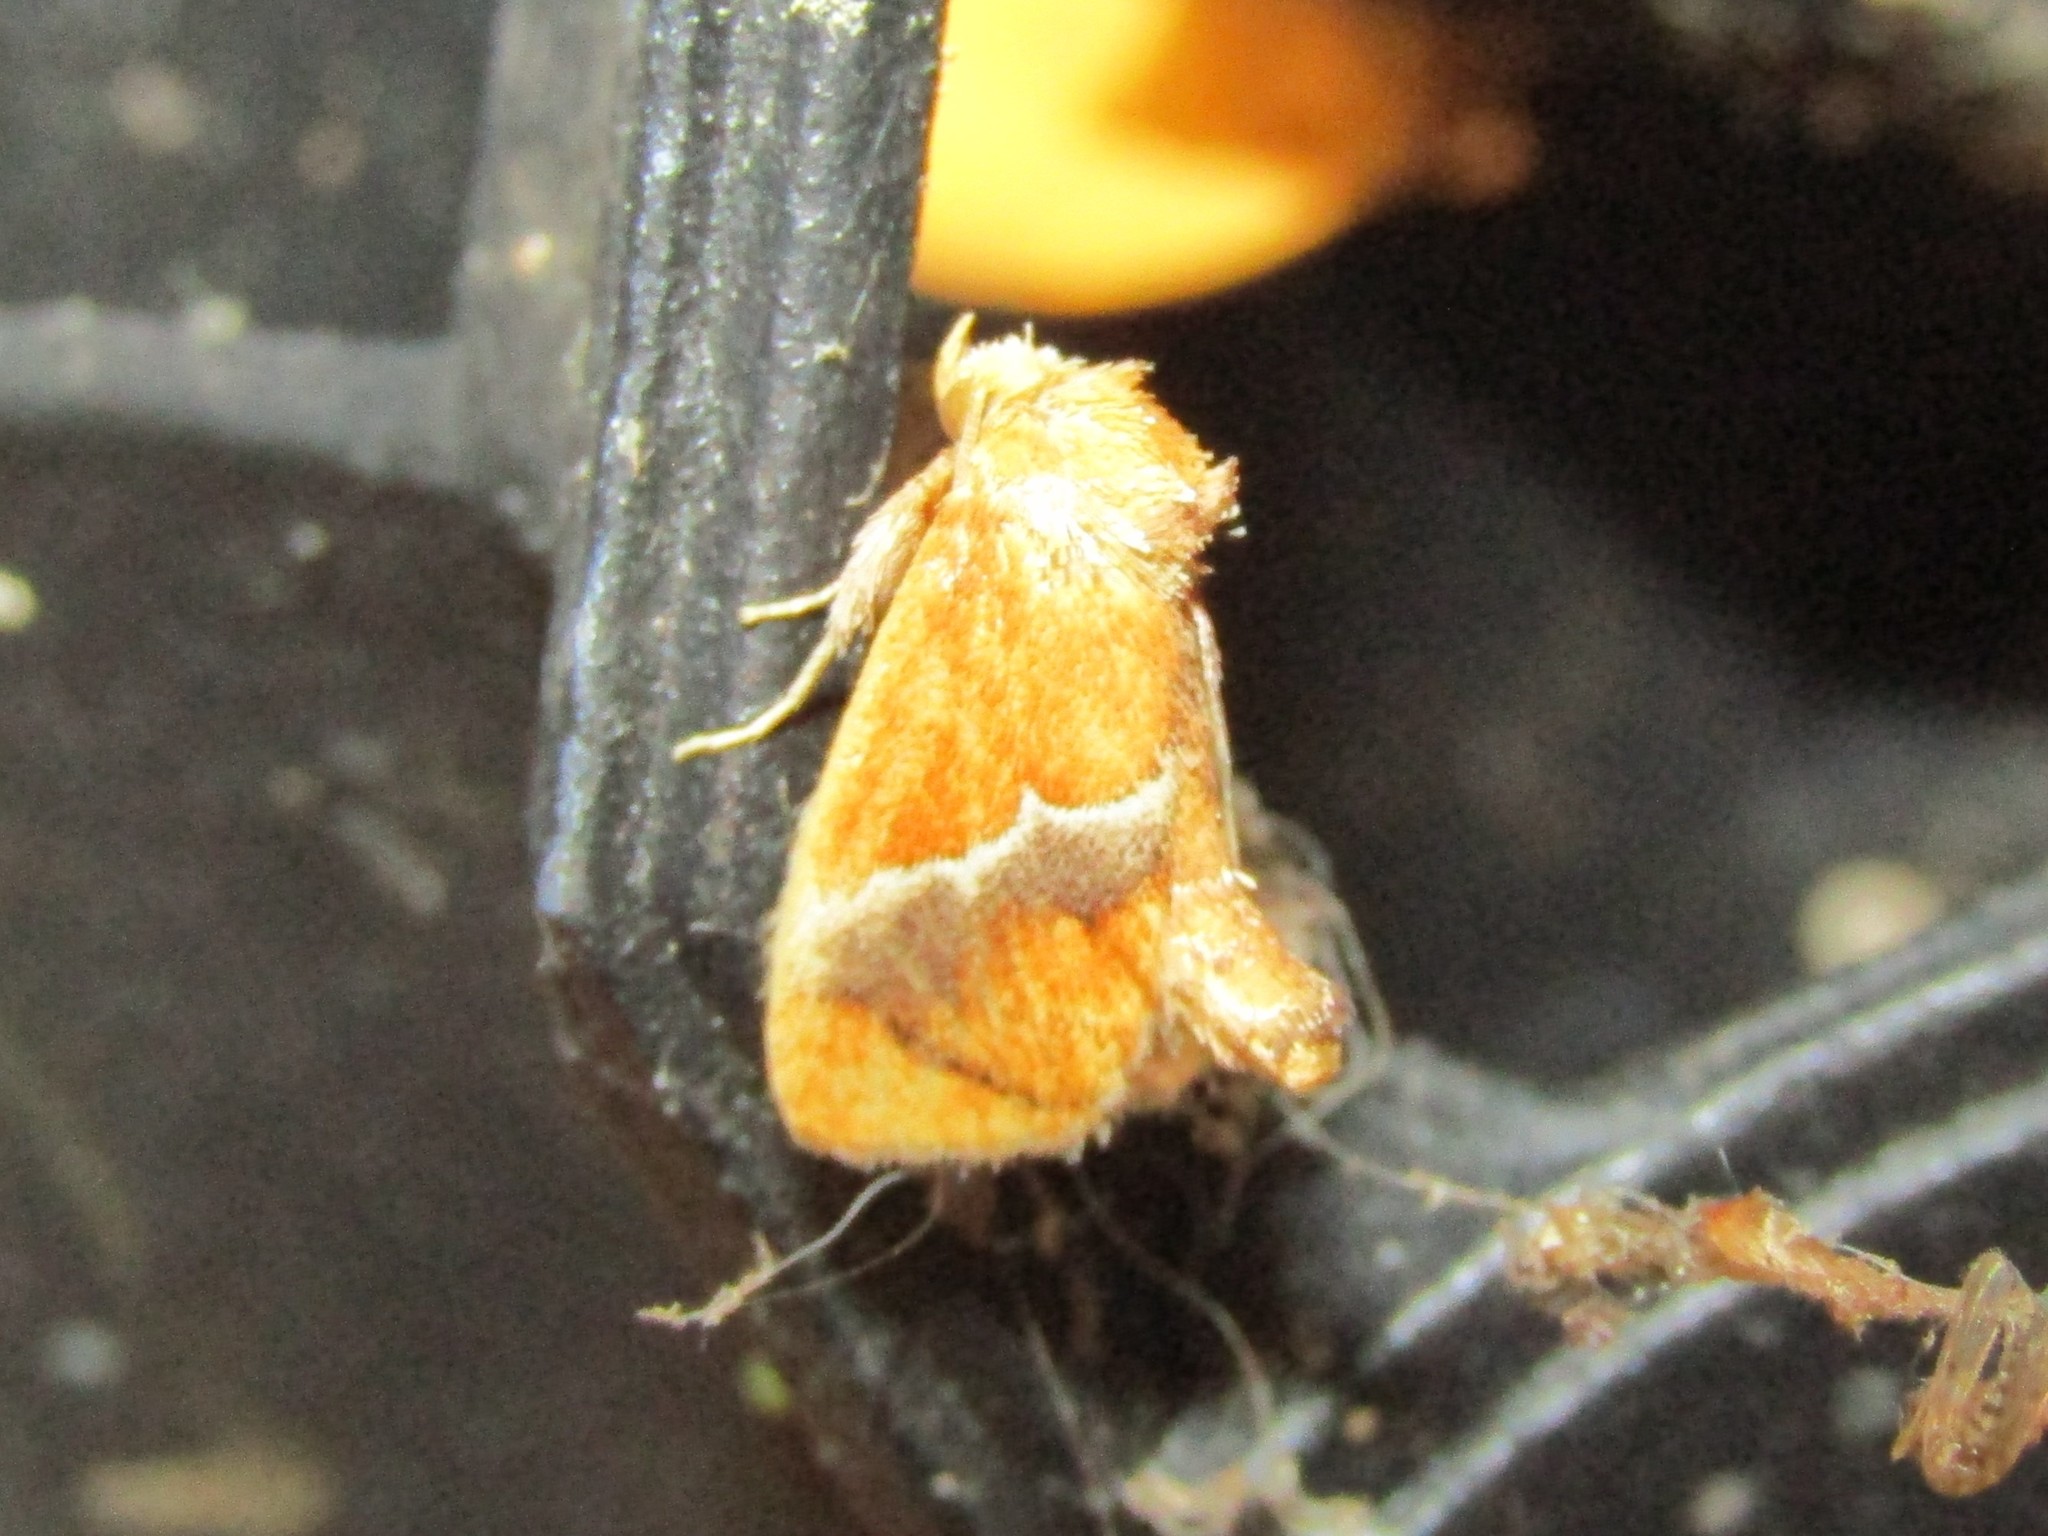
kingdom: Animalia
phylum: Arthropoda
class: Insecta
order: Lepidoptera
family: Limacodidae
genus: Lithacodes
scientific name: Lithacodes fasciola
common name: Yellow-shouldered slug moth
